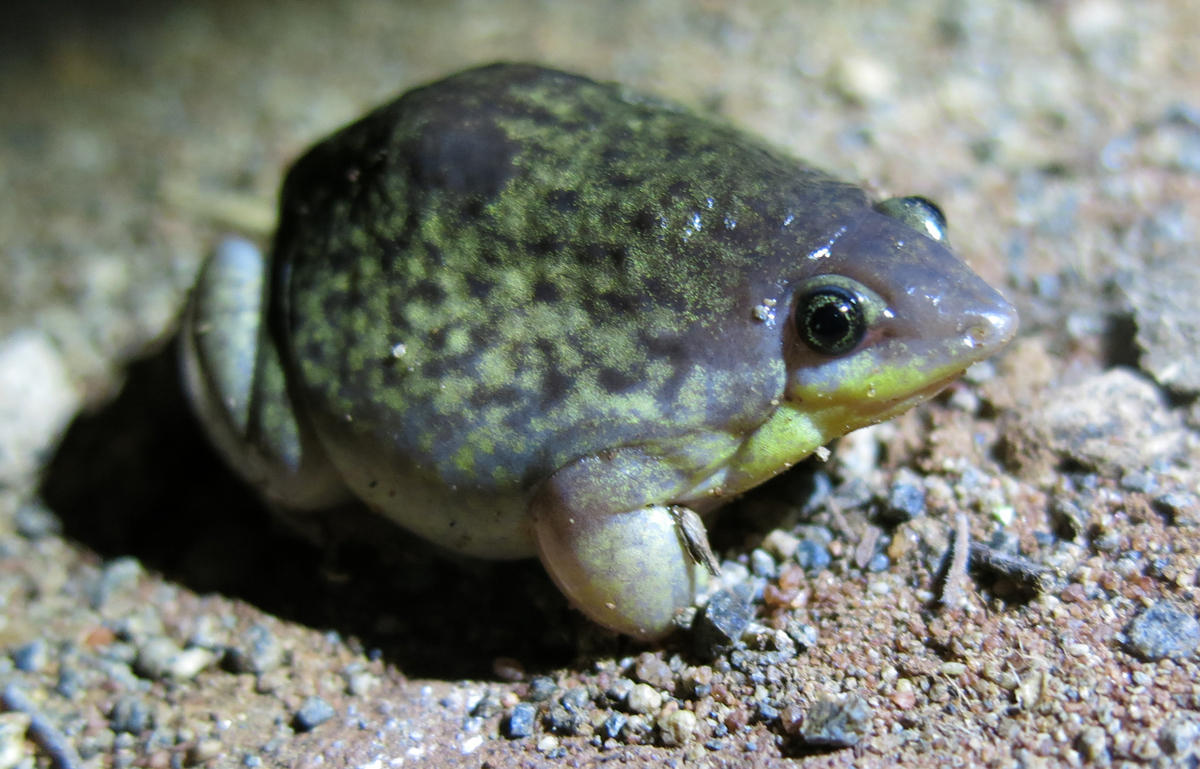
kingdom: Animalia
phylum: Chordata
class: Amphibia
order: Anura
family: Hemisotidae
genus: Hemisus
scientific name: Hemisus marmoratus
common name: Mottled shovel-nosed frog
